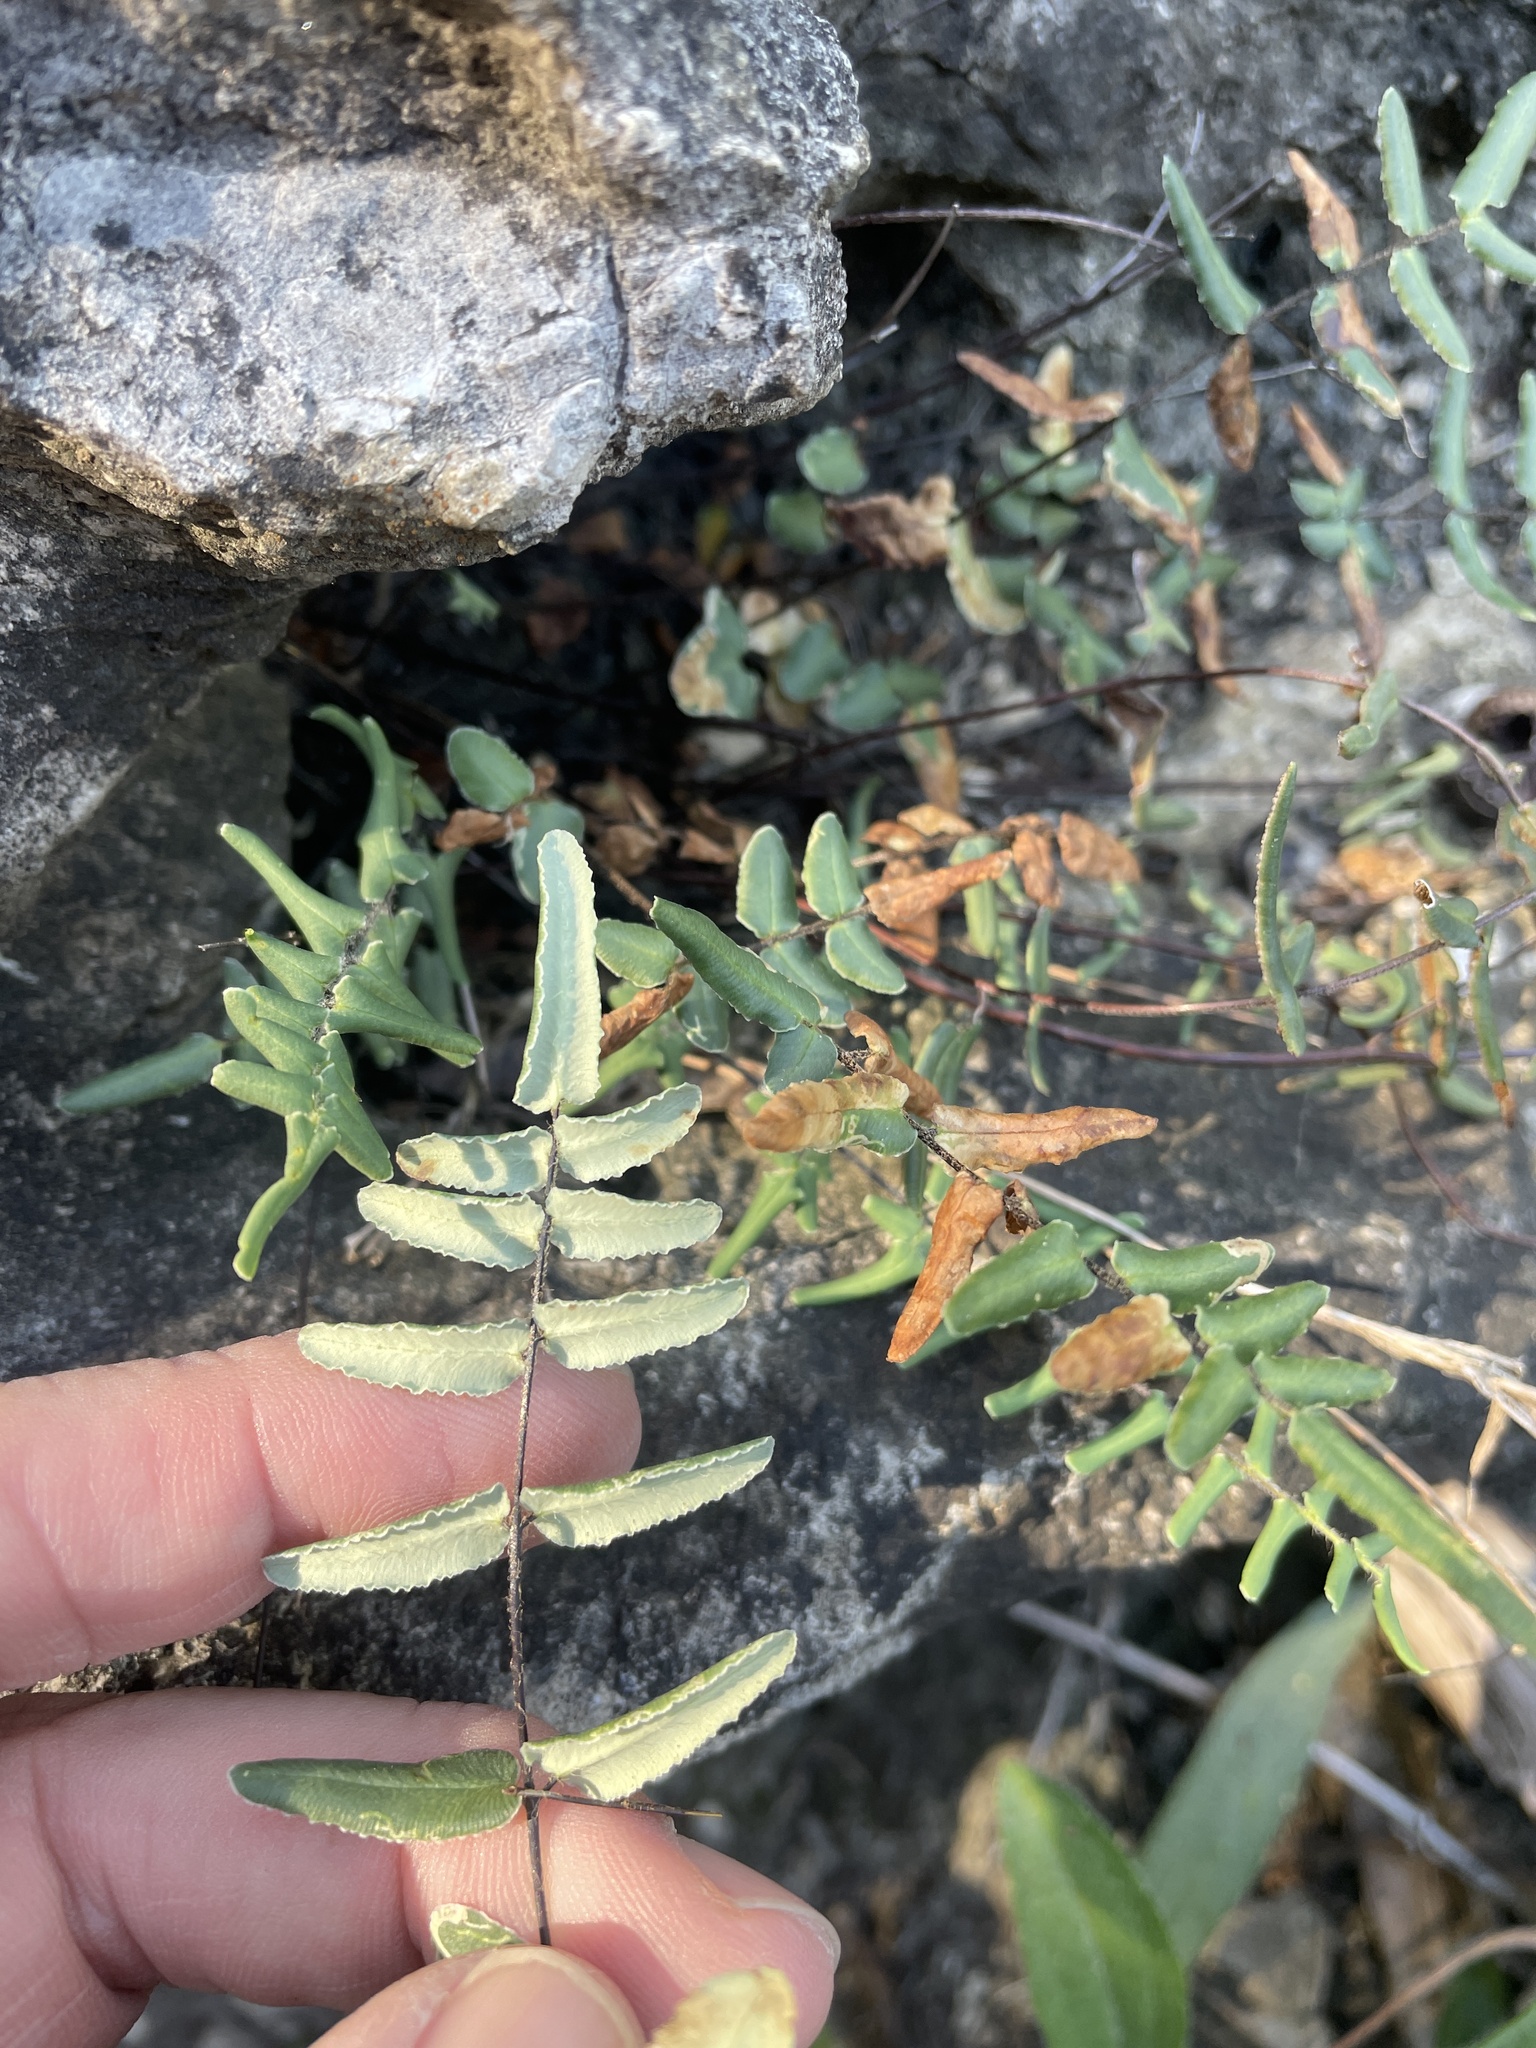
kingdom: Plantae
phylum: Tracheophyta
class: Polypodiopsida
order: Polypodiales
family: Pteridaceae
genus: Pellaea
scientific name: Pellaea atropurpurea
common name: Hairy cliffbrake
